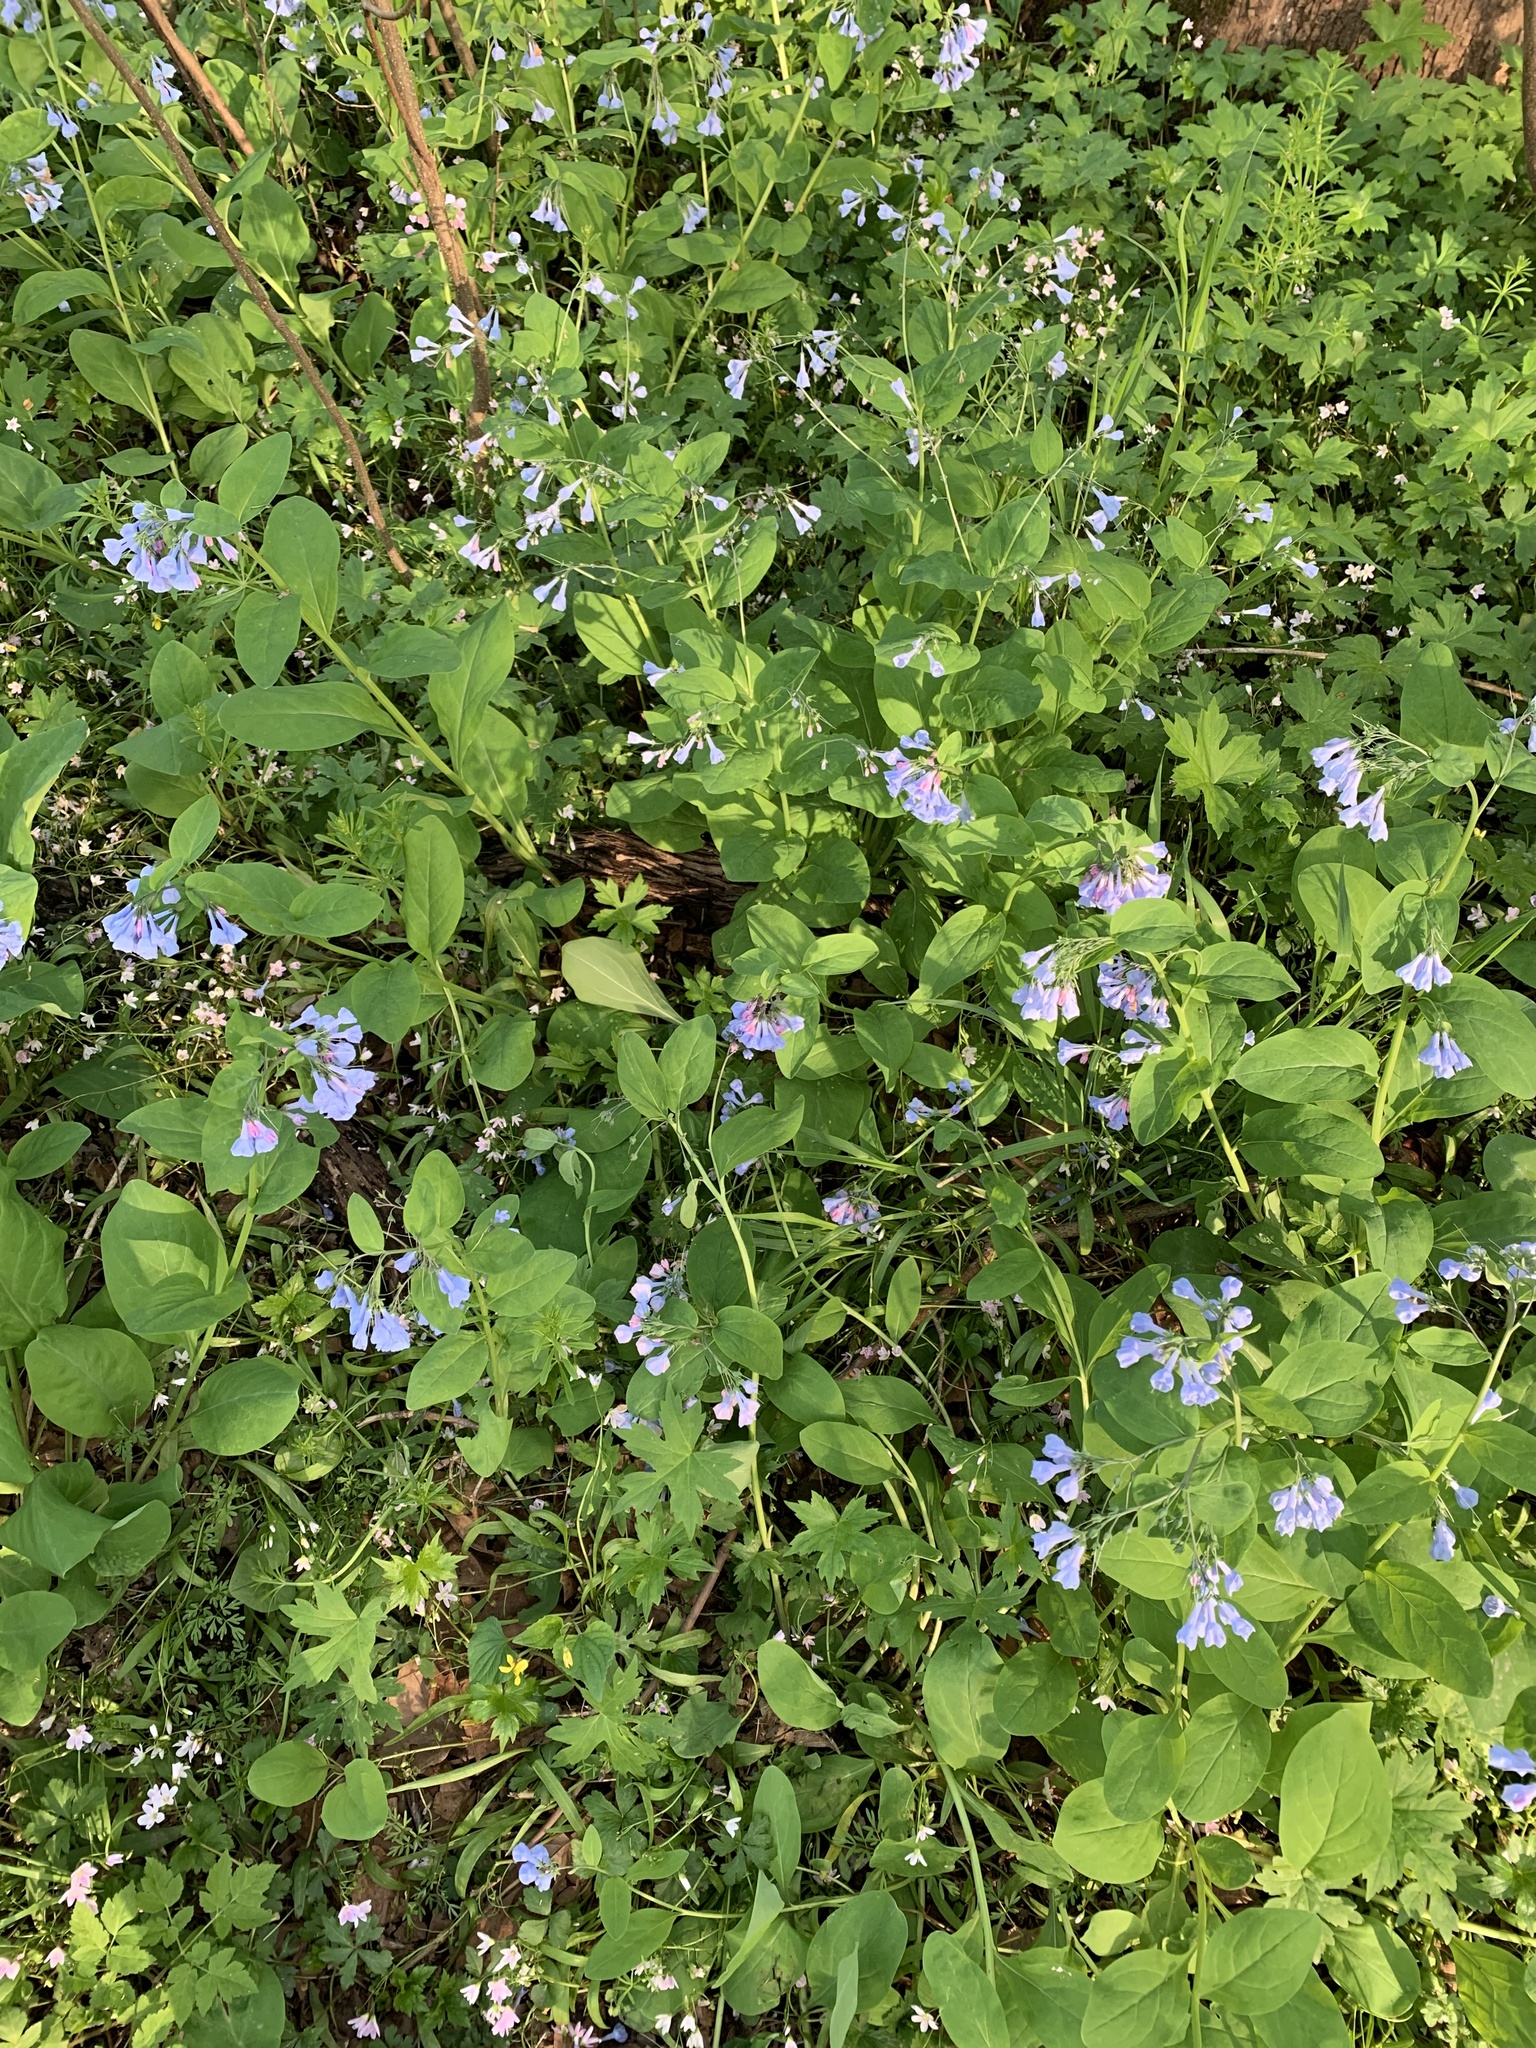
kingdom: Plantae
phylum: Tracheophyta
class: Magnoliopsida
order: Boraginales
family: Boraginaceae
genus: Mertensia
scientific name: Mertensia virginica
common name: Virginia bluebells
